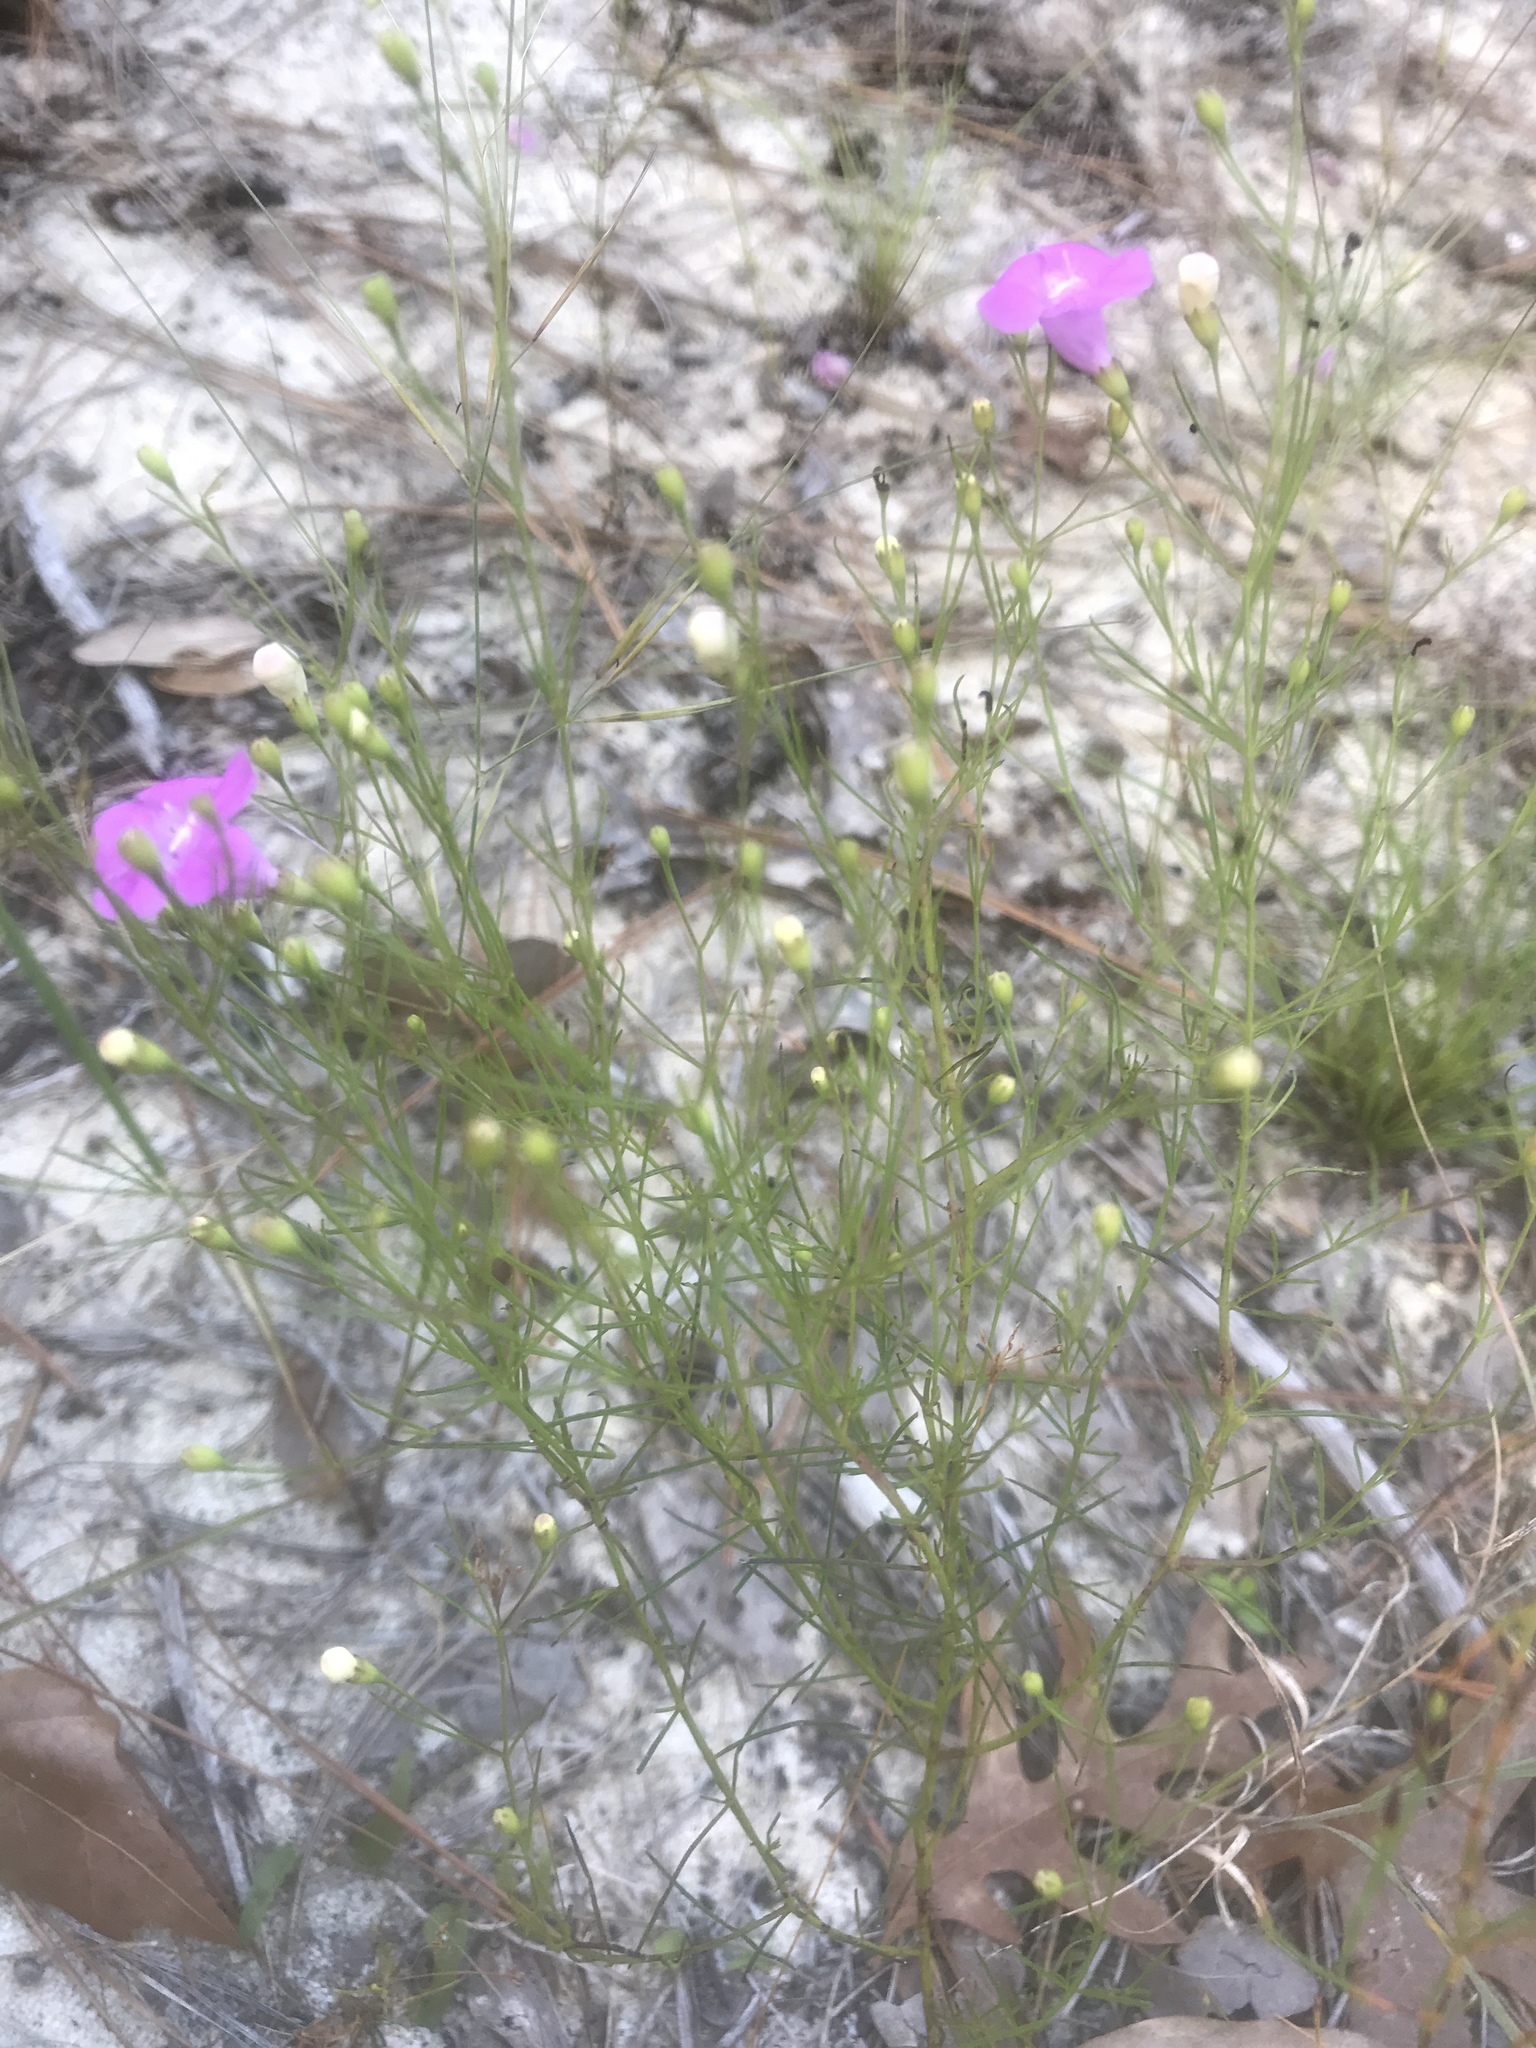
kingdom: Plantae
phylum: Tracheophyta
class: Magnoliopsida
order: Lamiales
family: Orobanchaceae
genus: Agalinis
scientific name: Agalinis setacea
